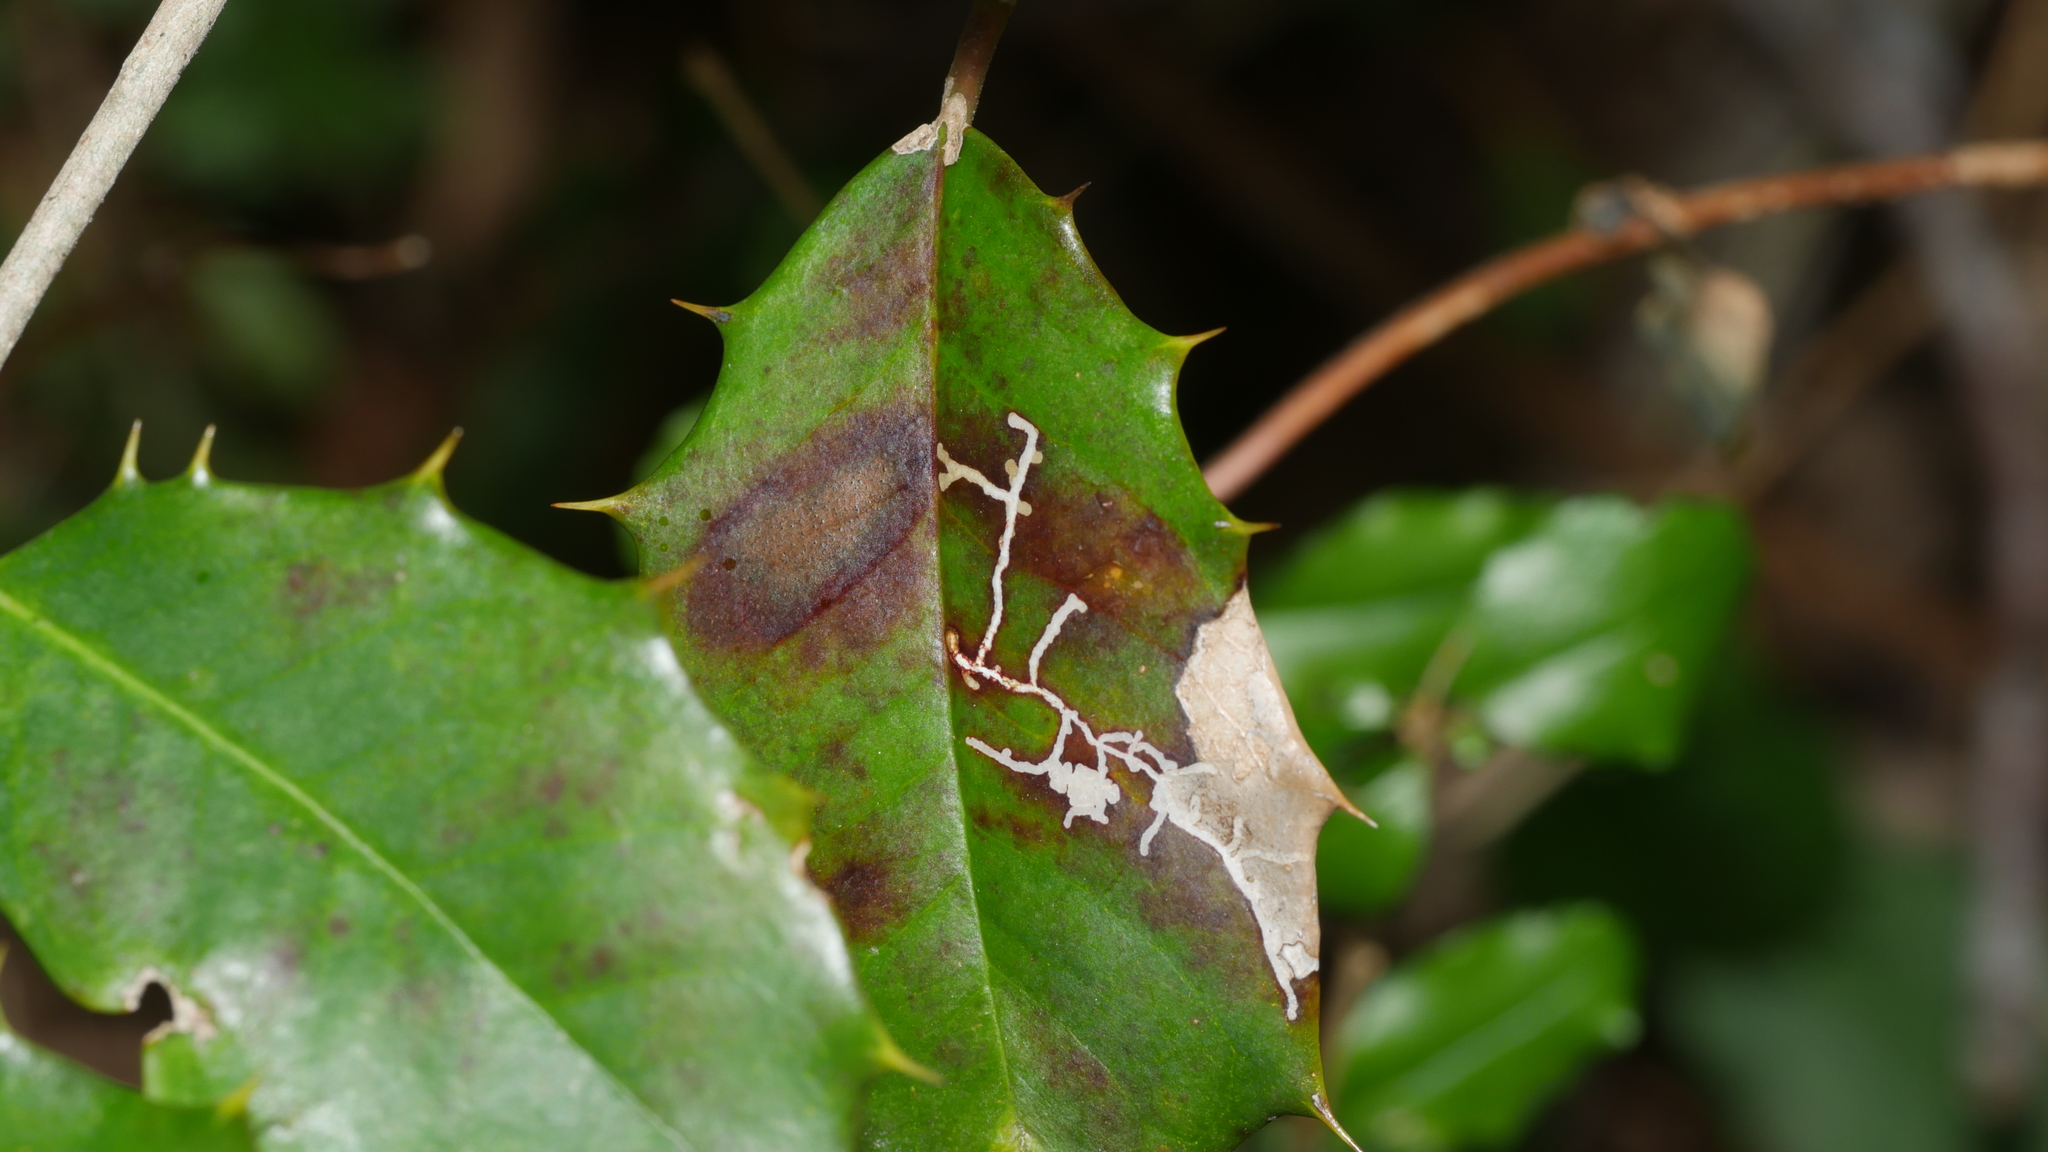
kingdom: Animalia
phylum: Arthropoda
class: Insecta
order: Lepidoptera
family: Tortricidae
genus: Rhopobota
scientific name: Rhopobota
